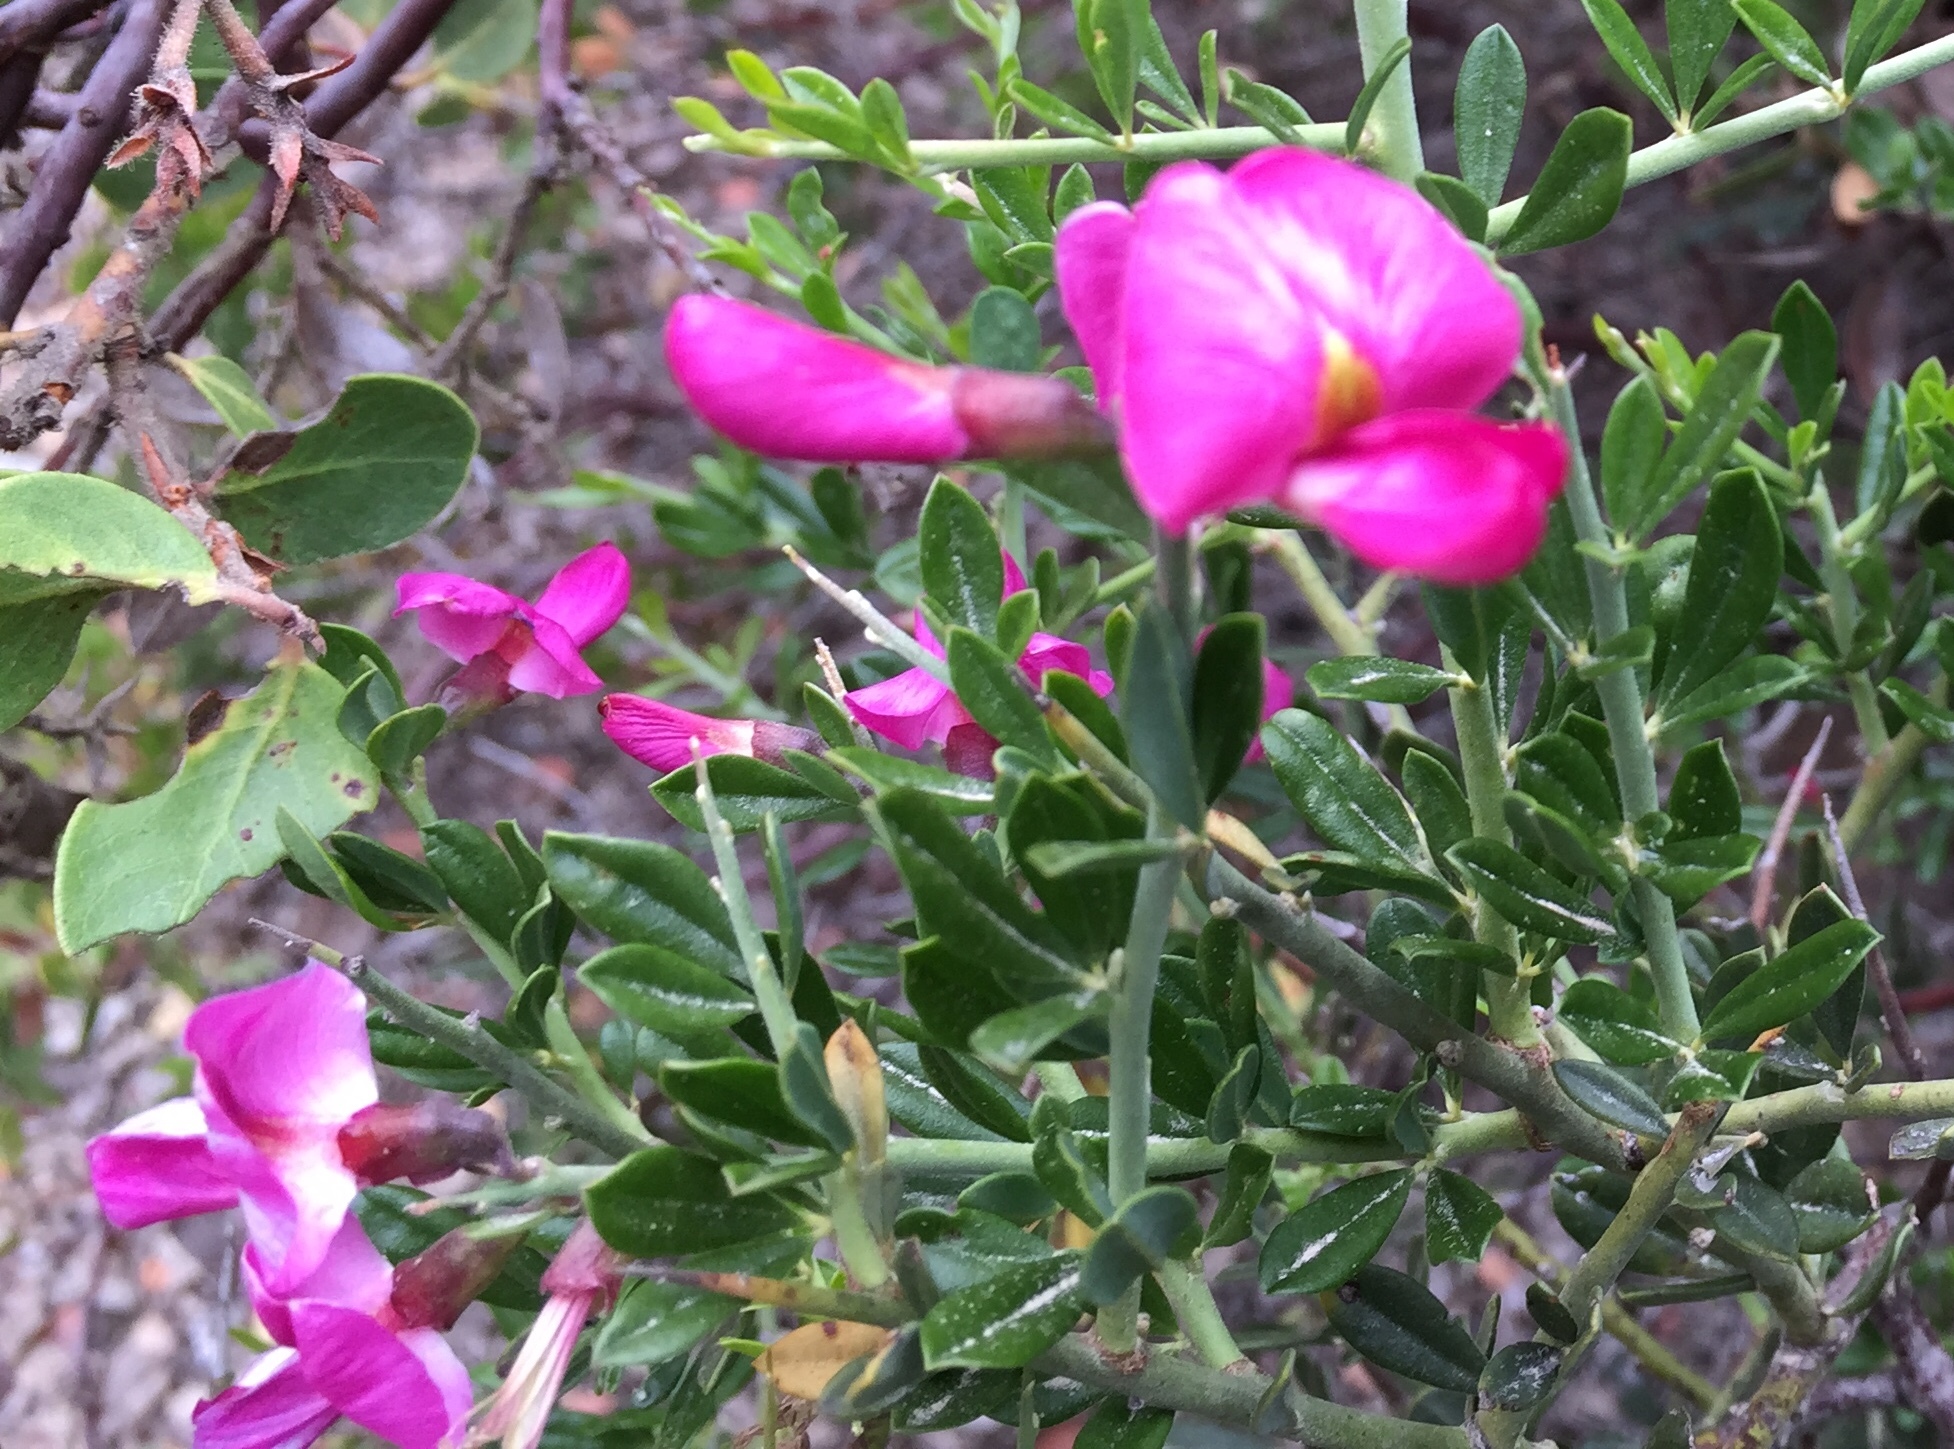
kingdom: Plantae
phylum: Tracheophyta
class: Magnoliopsida
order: Fabales
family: Fabaceae
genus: Pickeringia
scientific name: Pickeringia montana
